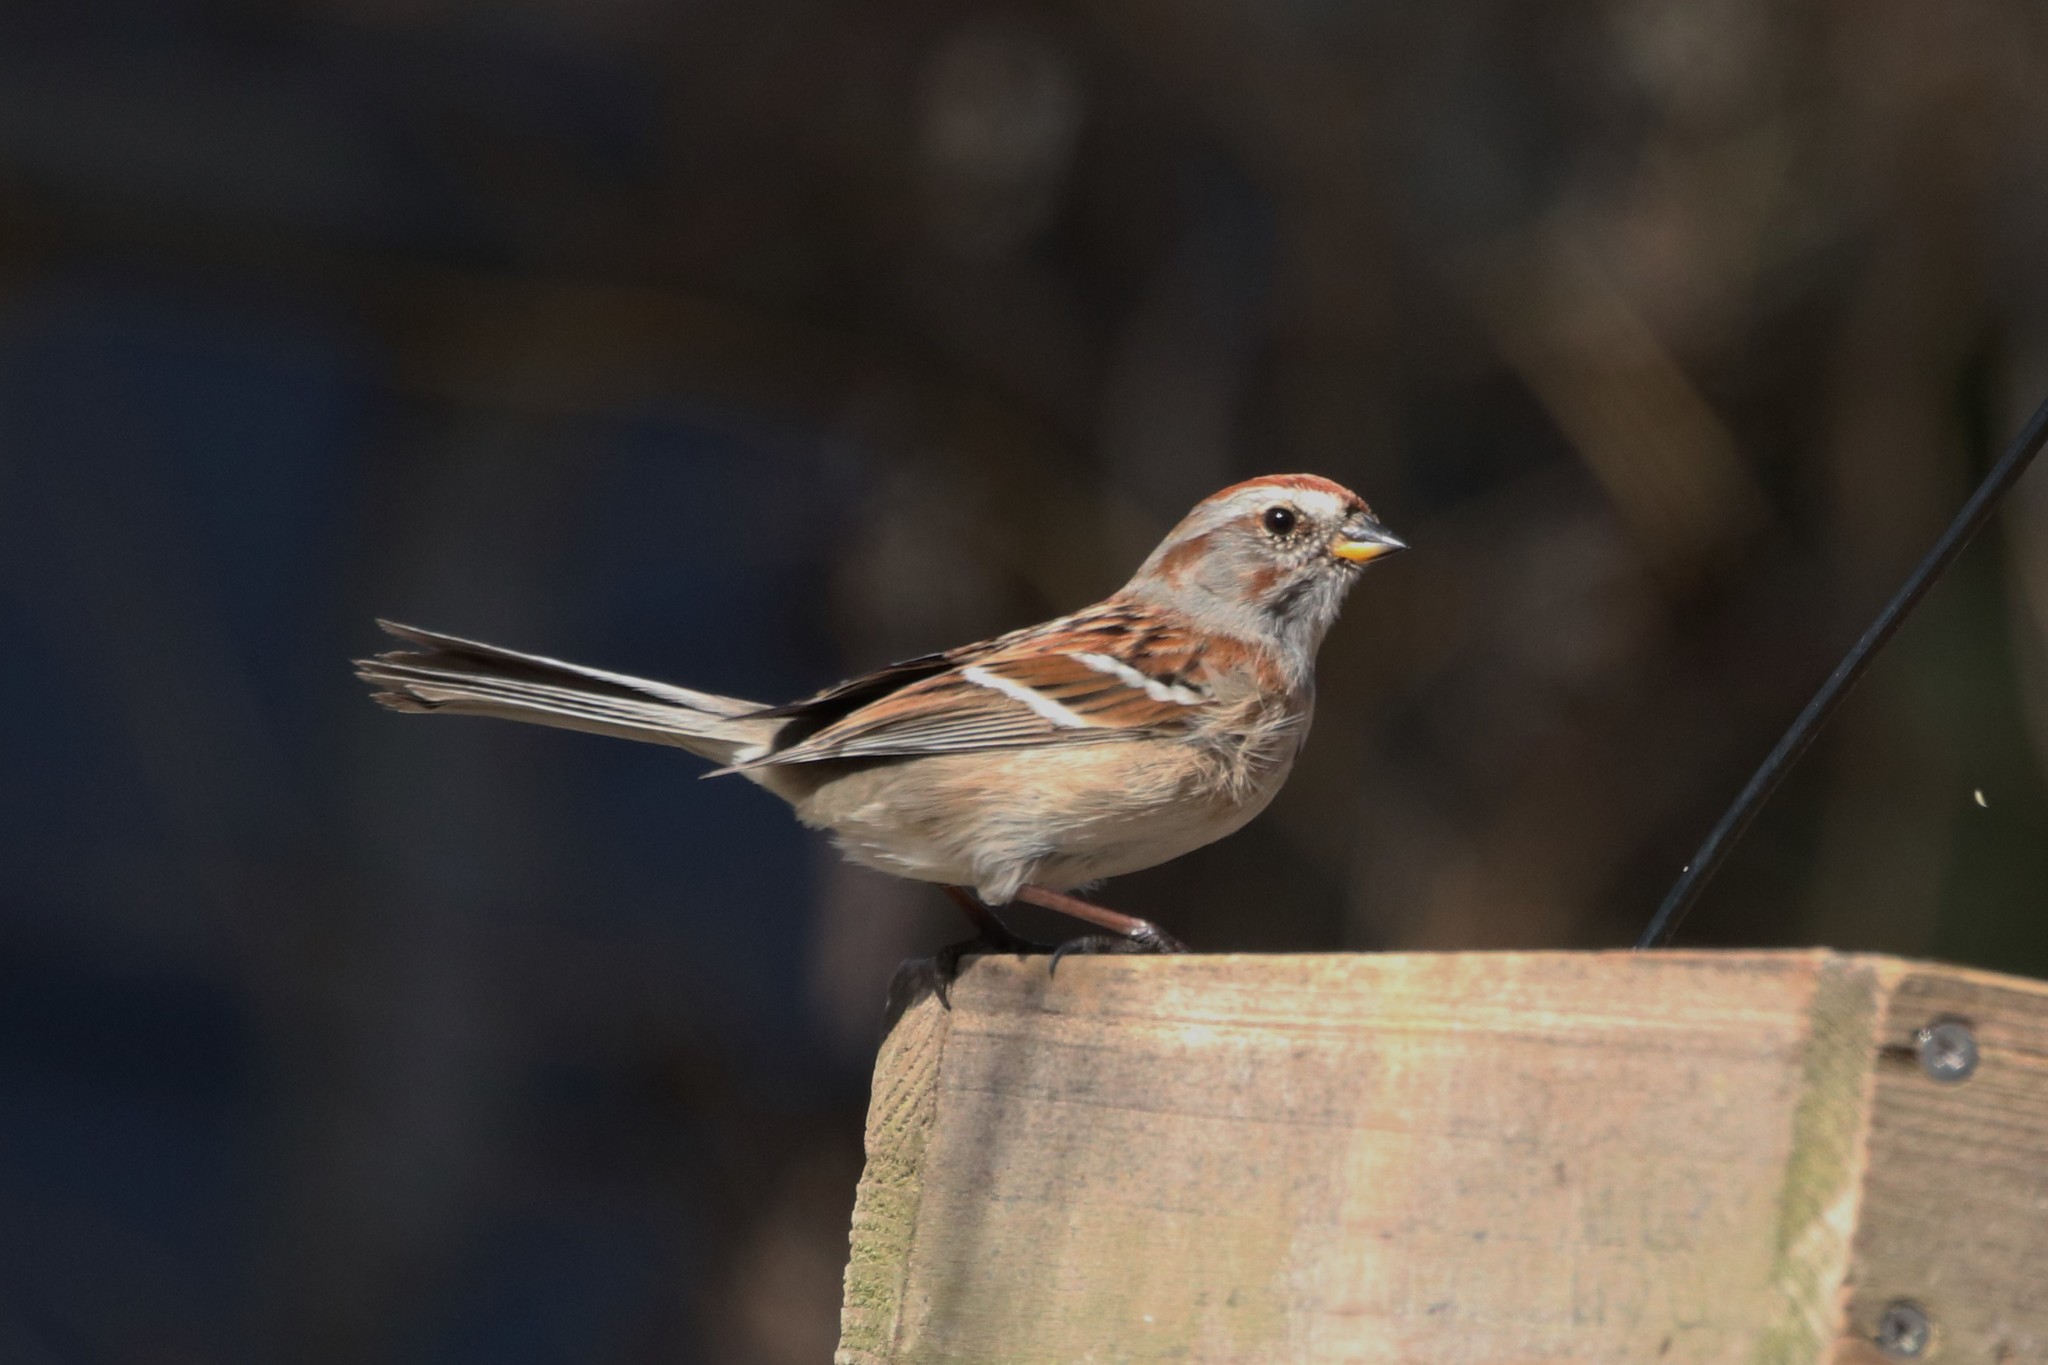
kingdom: Animalia
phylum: Chordata
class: Aves
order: Passeriformes
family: Passerellidae
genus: Spizelloides
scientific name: Spizelloides arborea
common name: American tree sparrow
